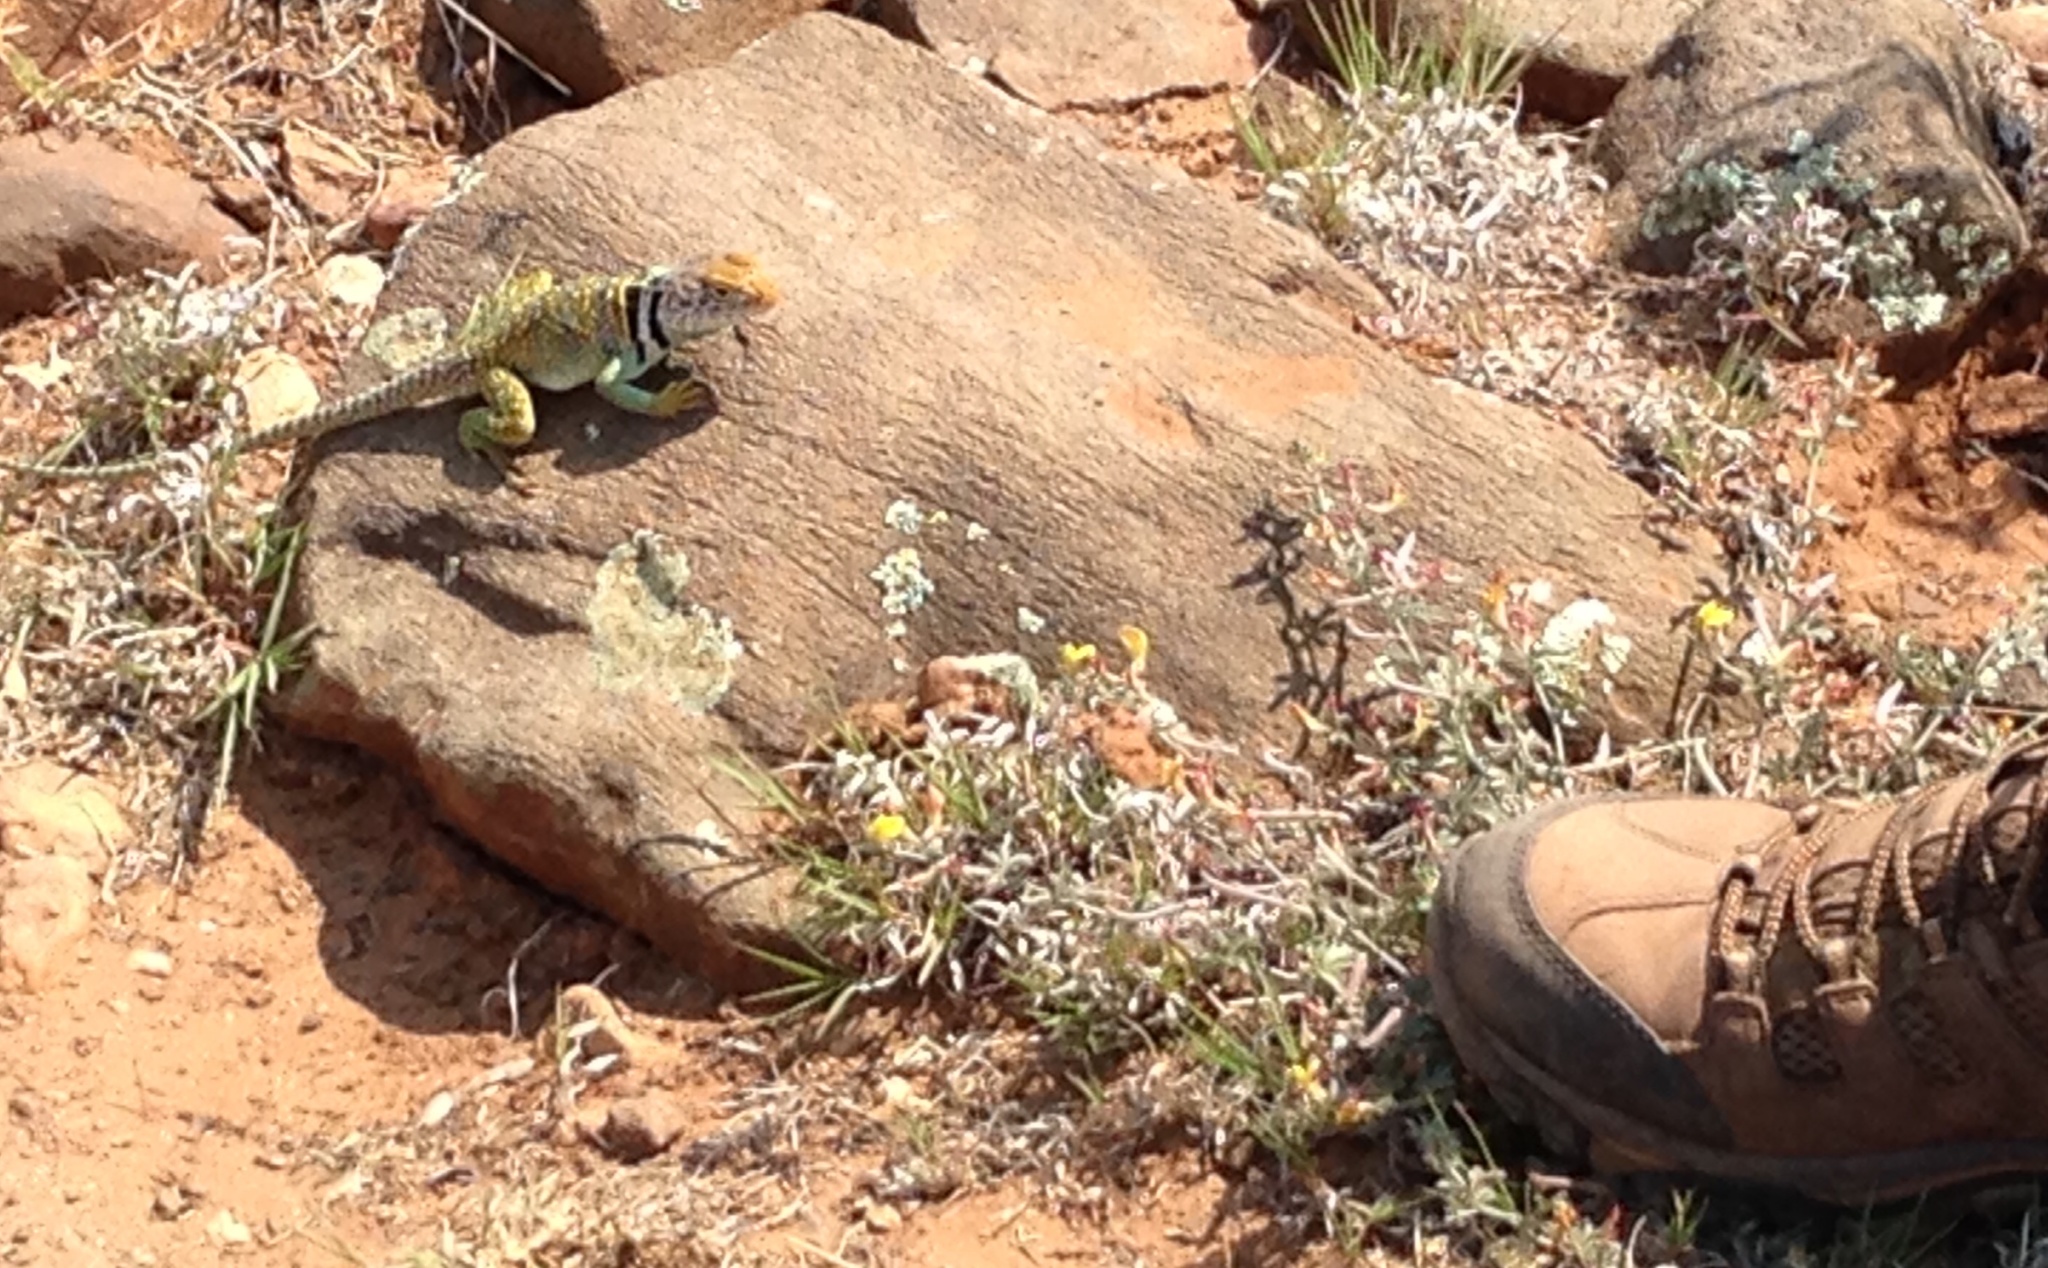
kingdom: Animalia
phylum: Chordata
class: Squamata
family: Crotaphytidae
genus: Crotaphytus
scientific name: Crotaphytus collaris
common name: Collared lizard
